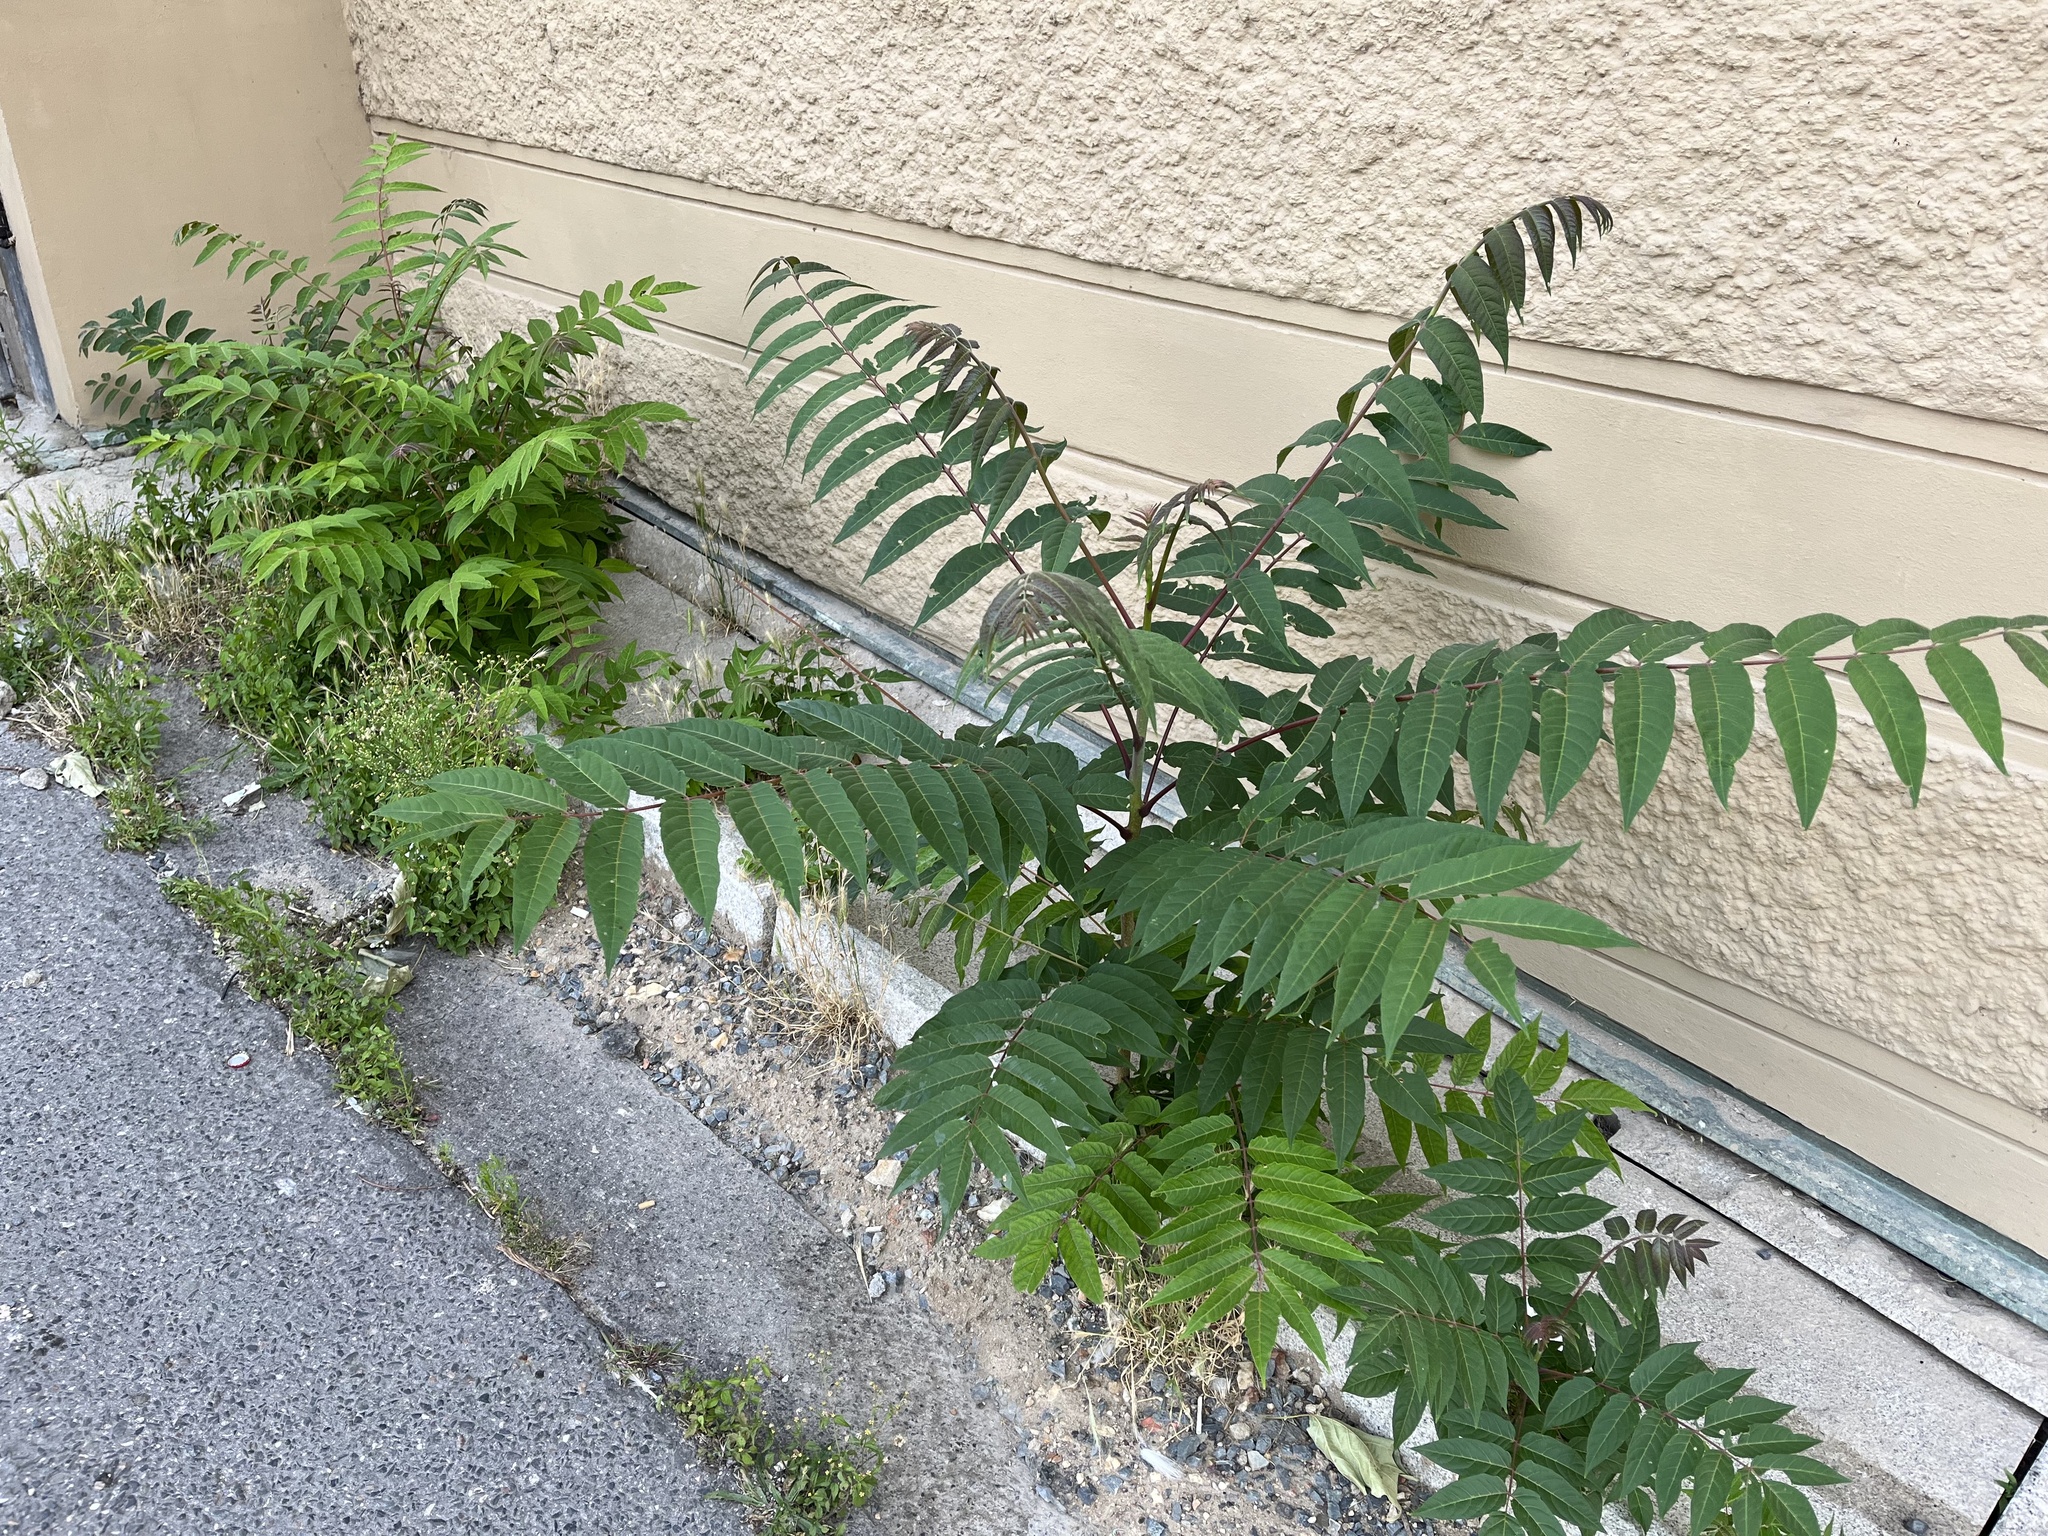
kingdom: Plantae
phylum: Tracheophyta
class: Magnoliopsida
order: Sapindales
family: Simaroubaceae
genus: Ailanthus
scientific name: Ailanthus altissima
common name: Tree-of-heaven
